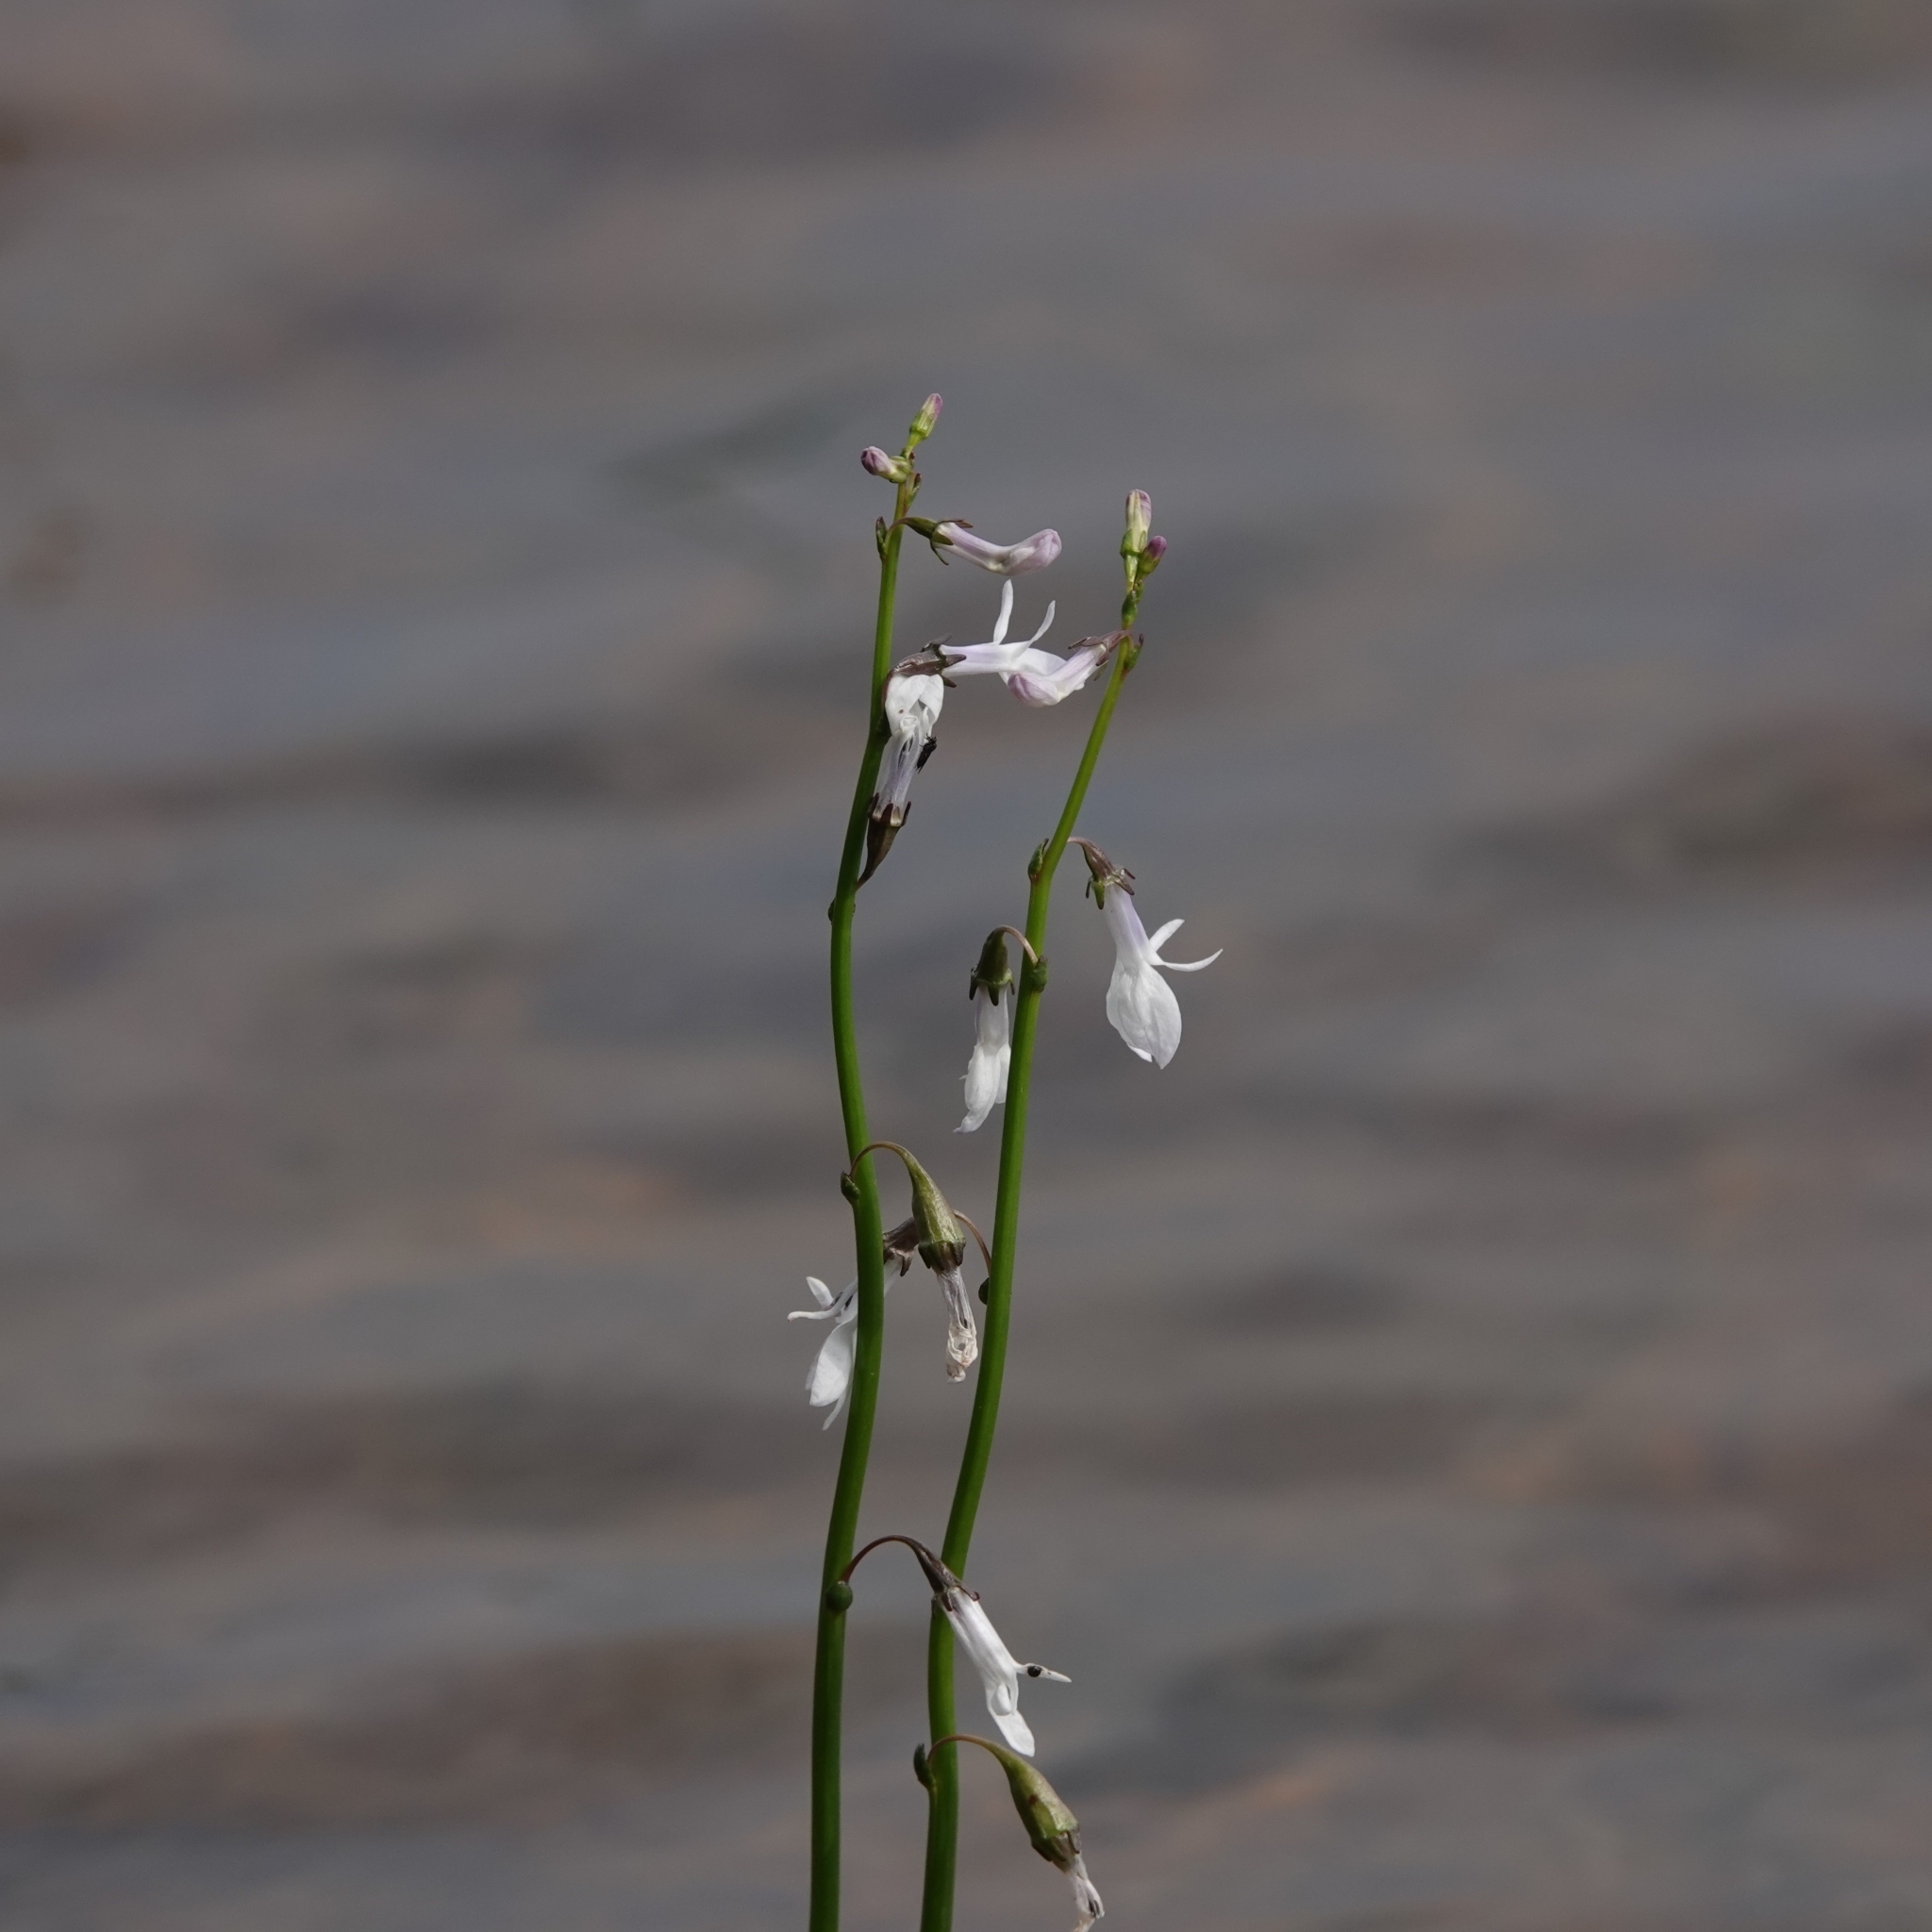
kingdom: Plantae
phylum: Tracheophyta
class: Magnoliopsida
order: Asterales
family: Campanulaceae
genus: Lobelia
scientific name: Lobelia dortmanna
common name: Water lobelia
